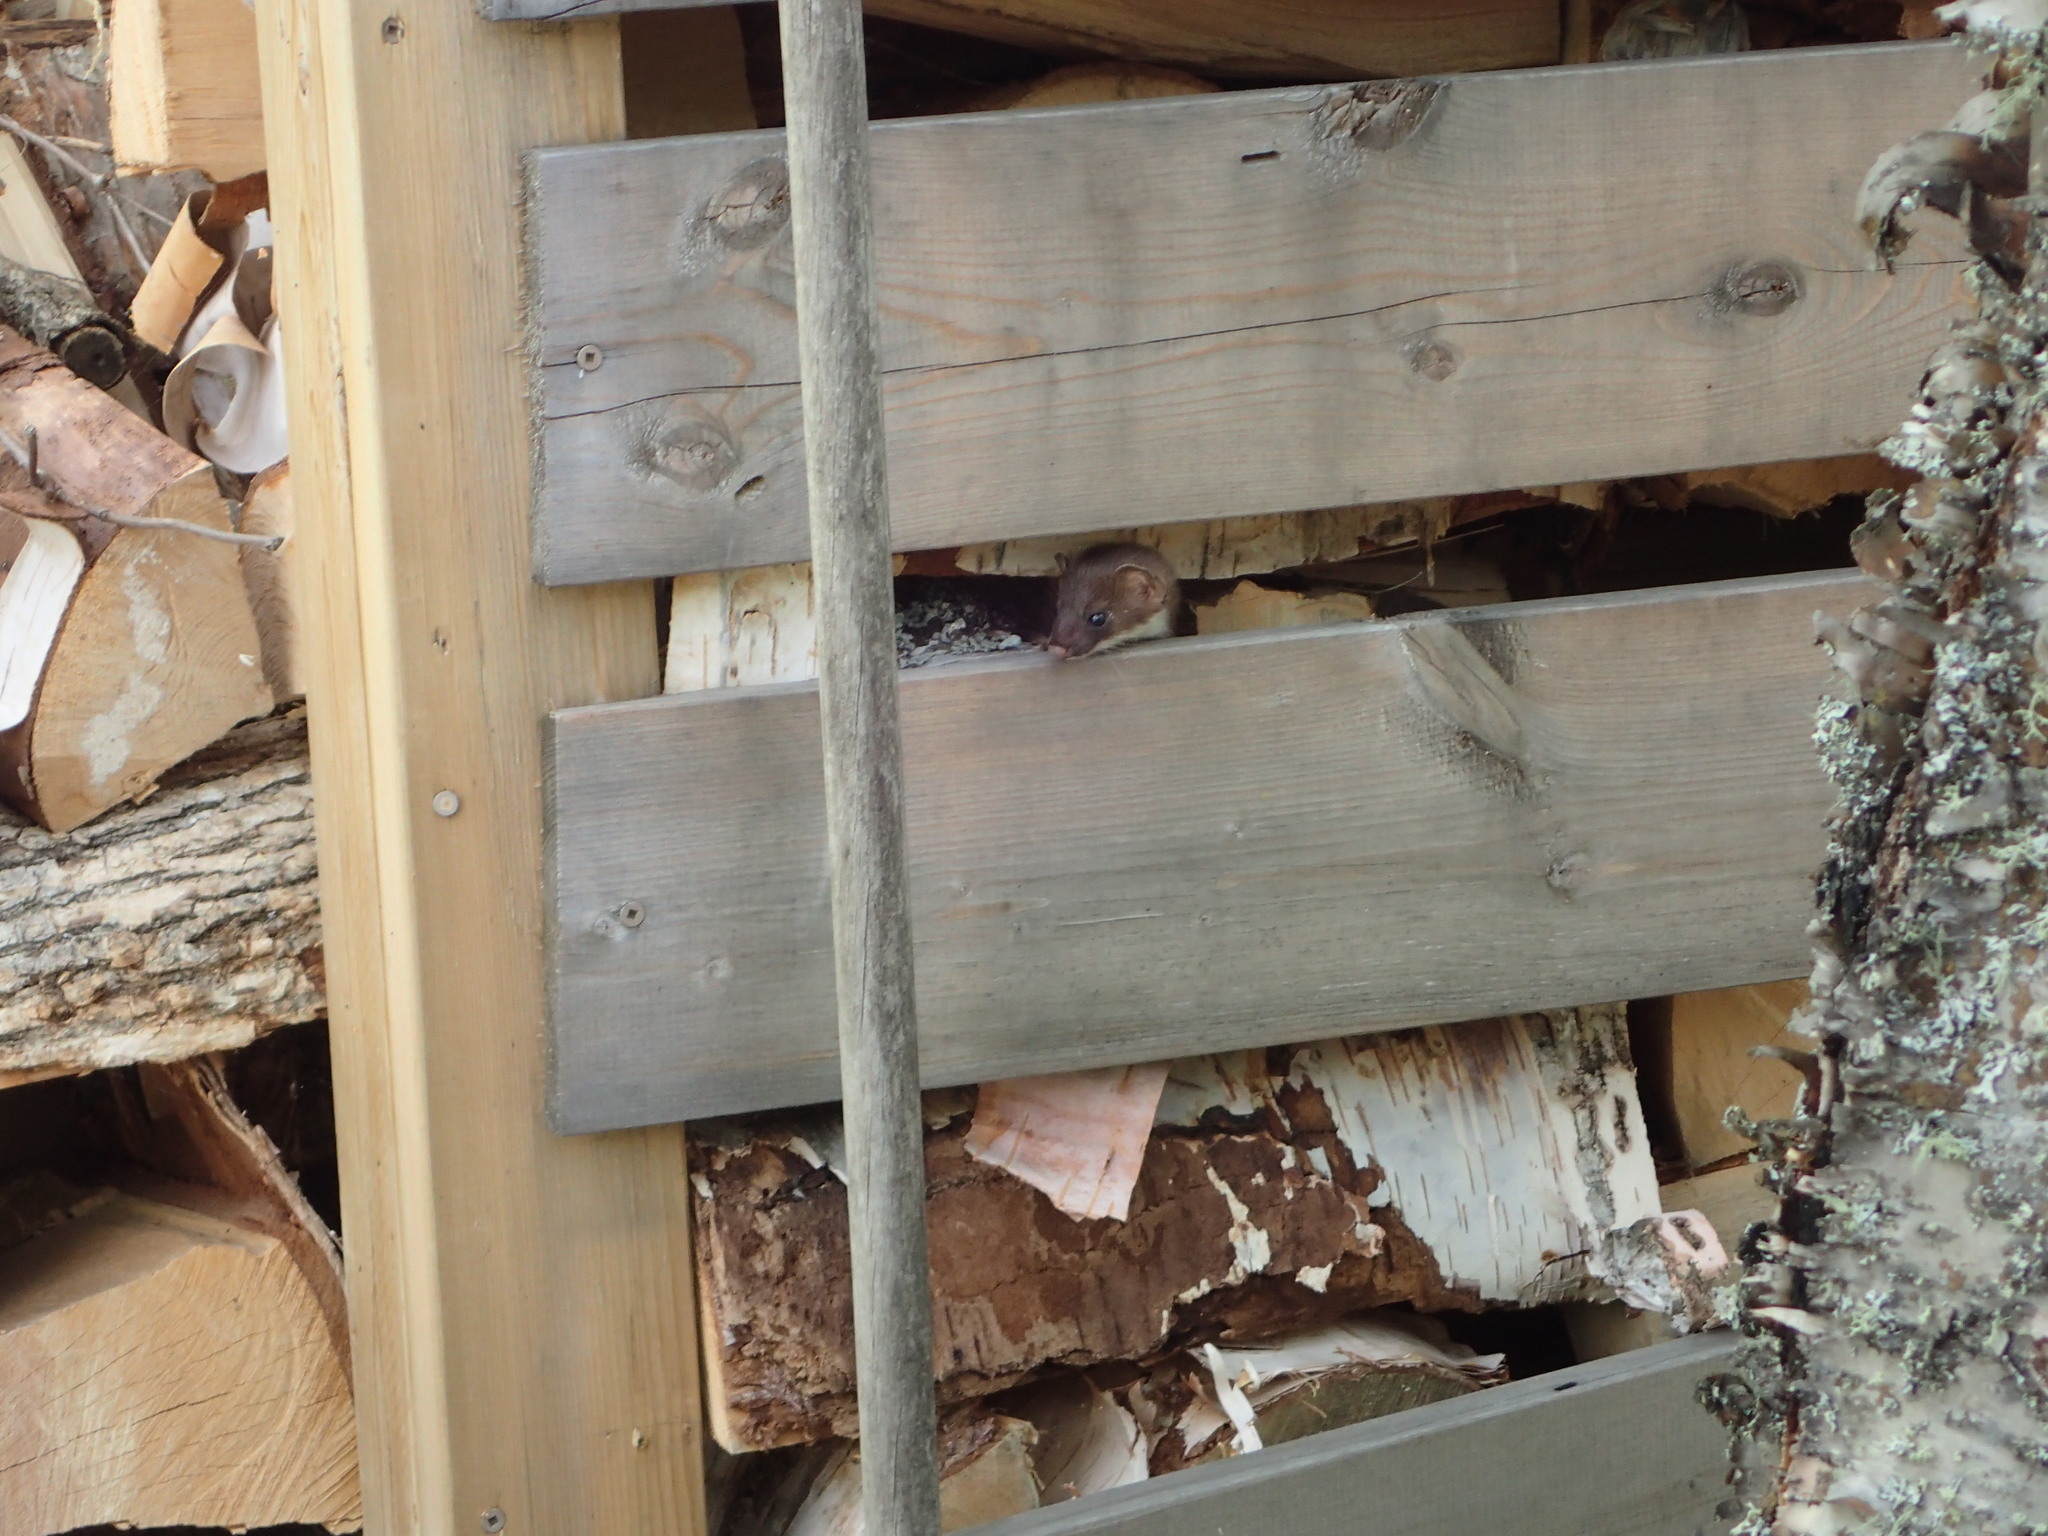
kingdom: Animalia
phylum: Chordata
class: Mammalia
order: Carnivora
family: Mustelidae
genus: Mustela
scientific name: Mustela erminea
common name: Stoat
